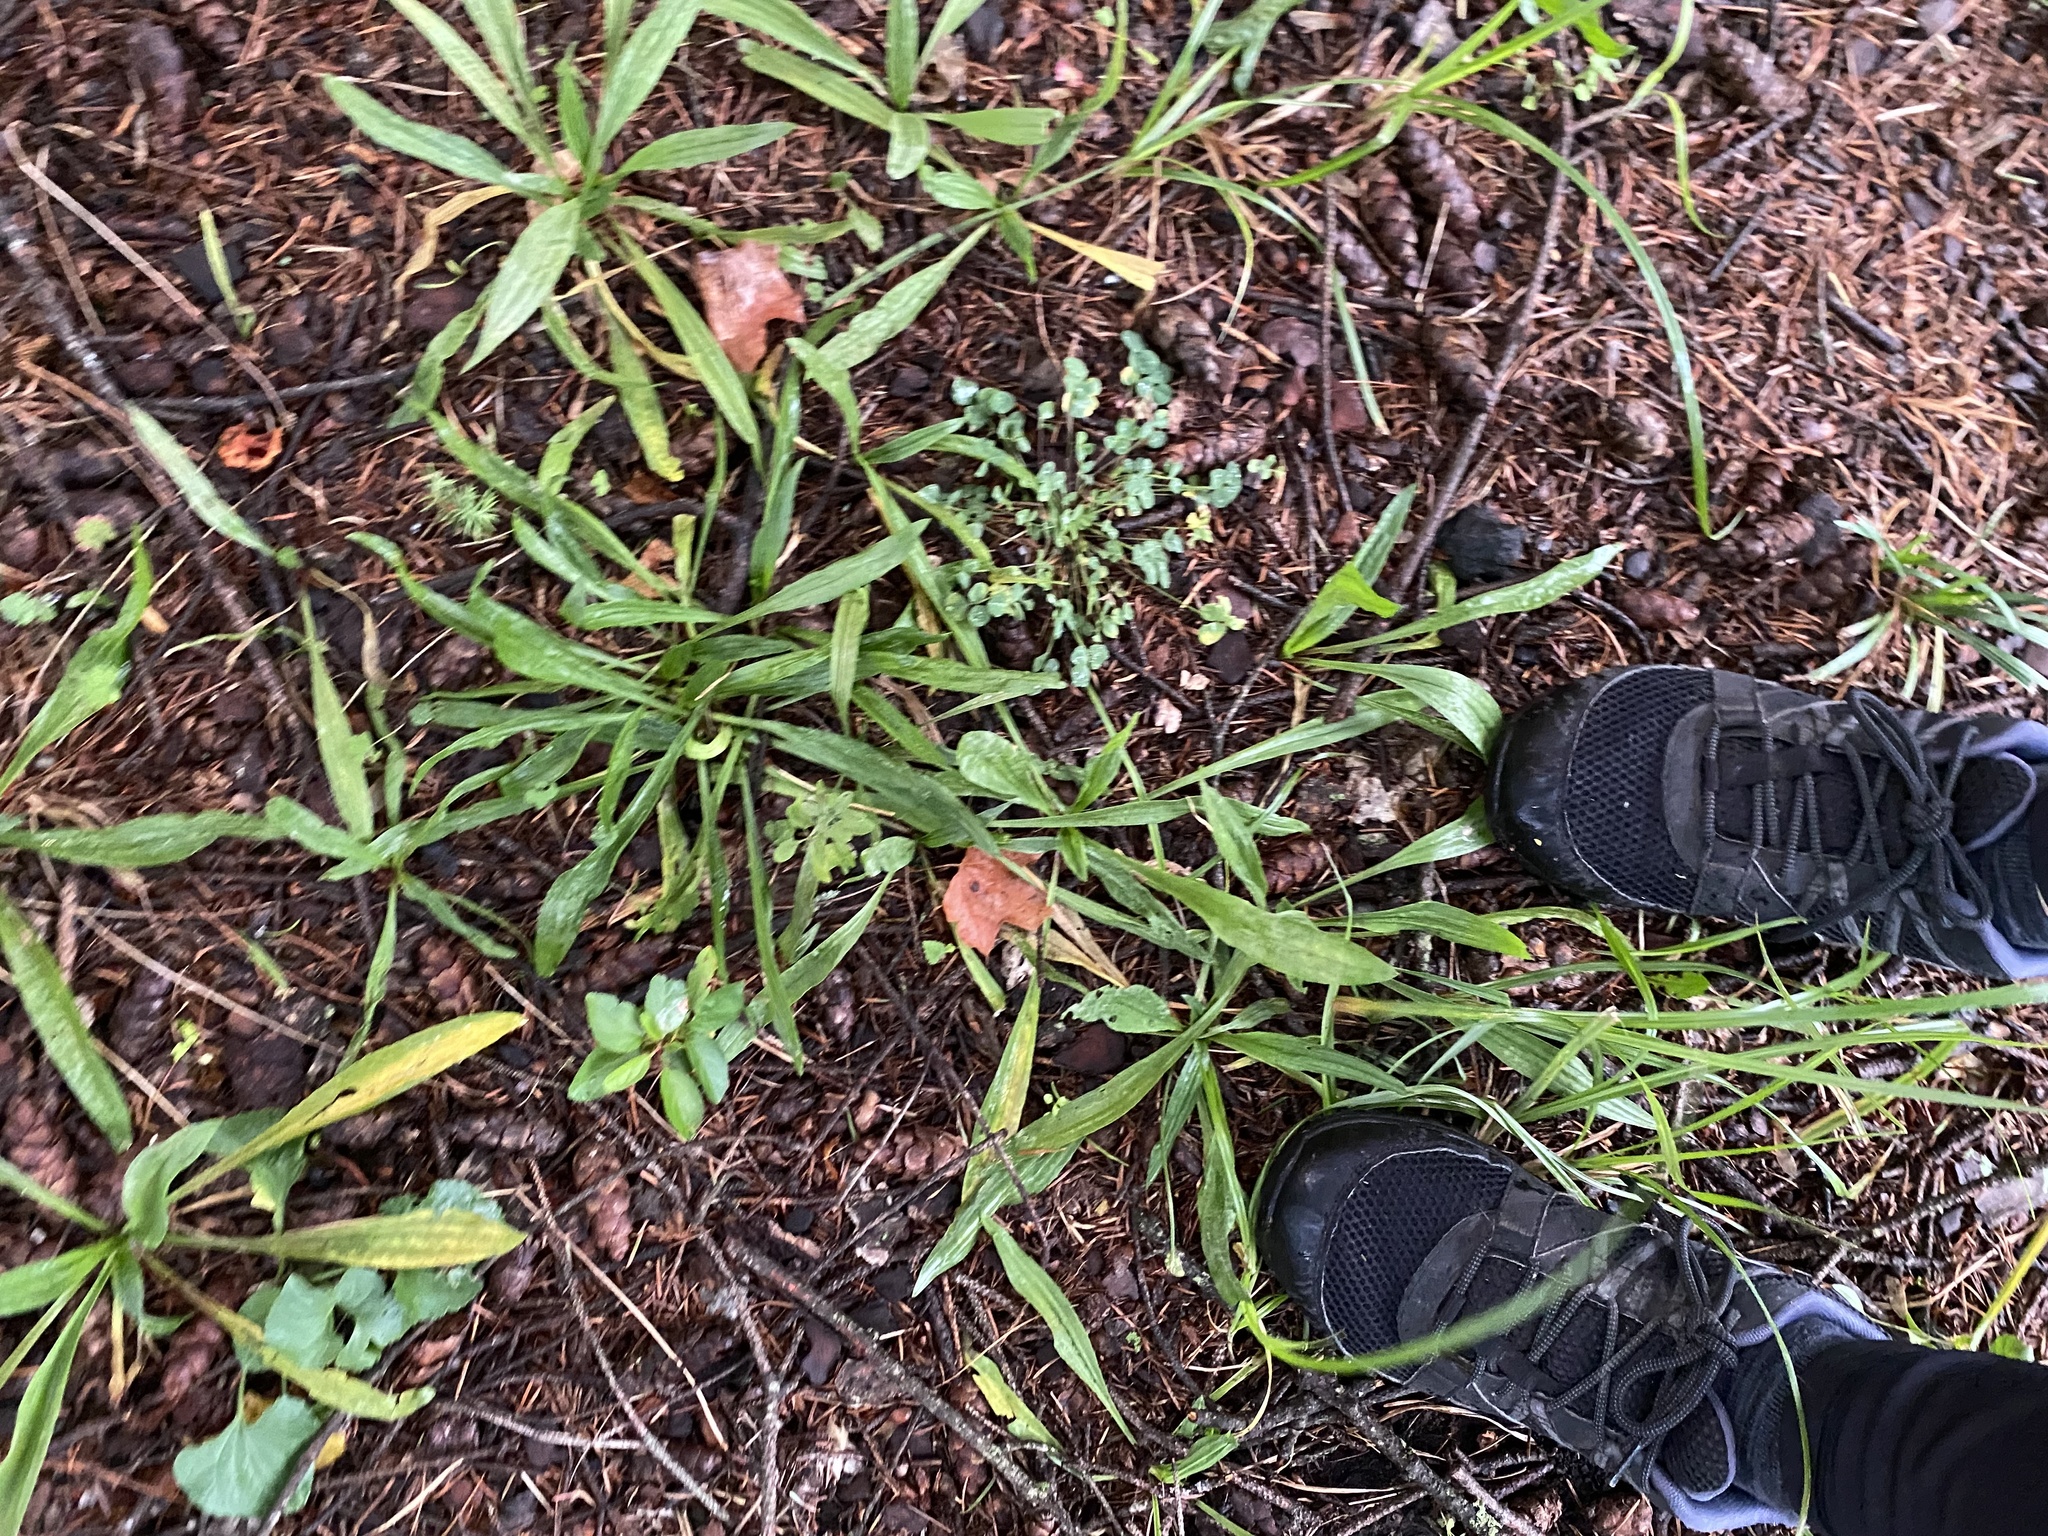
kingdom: Plantae
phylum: Tracheophyta
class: Magnoliopsida
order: Lamiales
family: Plantaginaceae
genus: Plantago
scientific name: Plantago lanceolata
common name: Ribwort plantain
